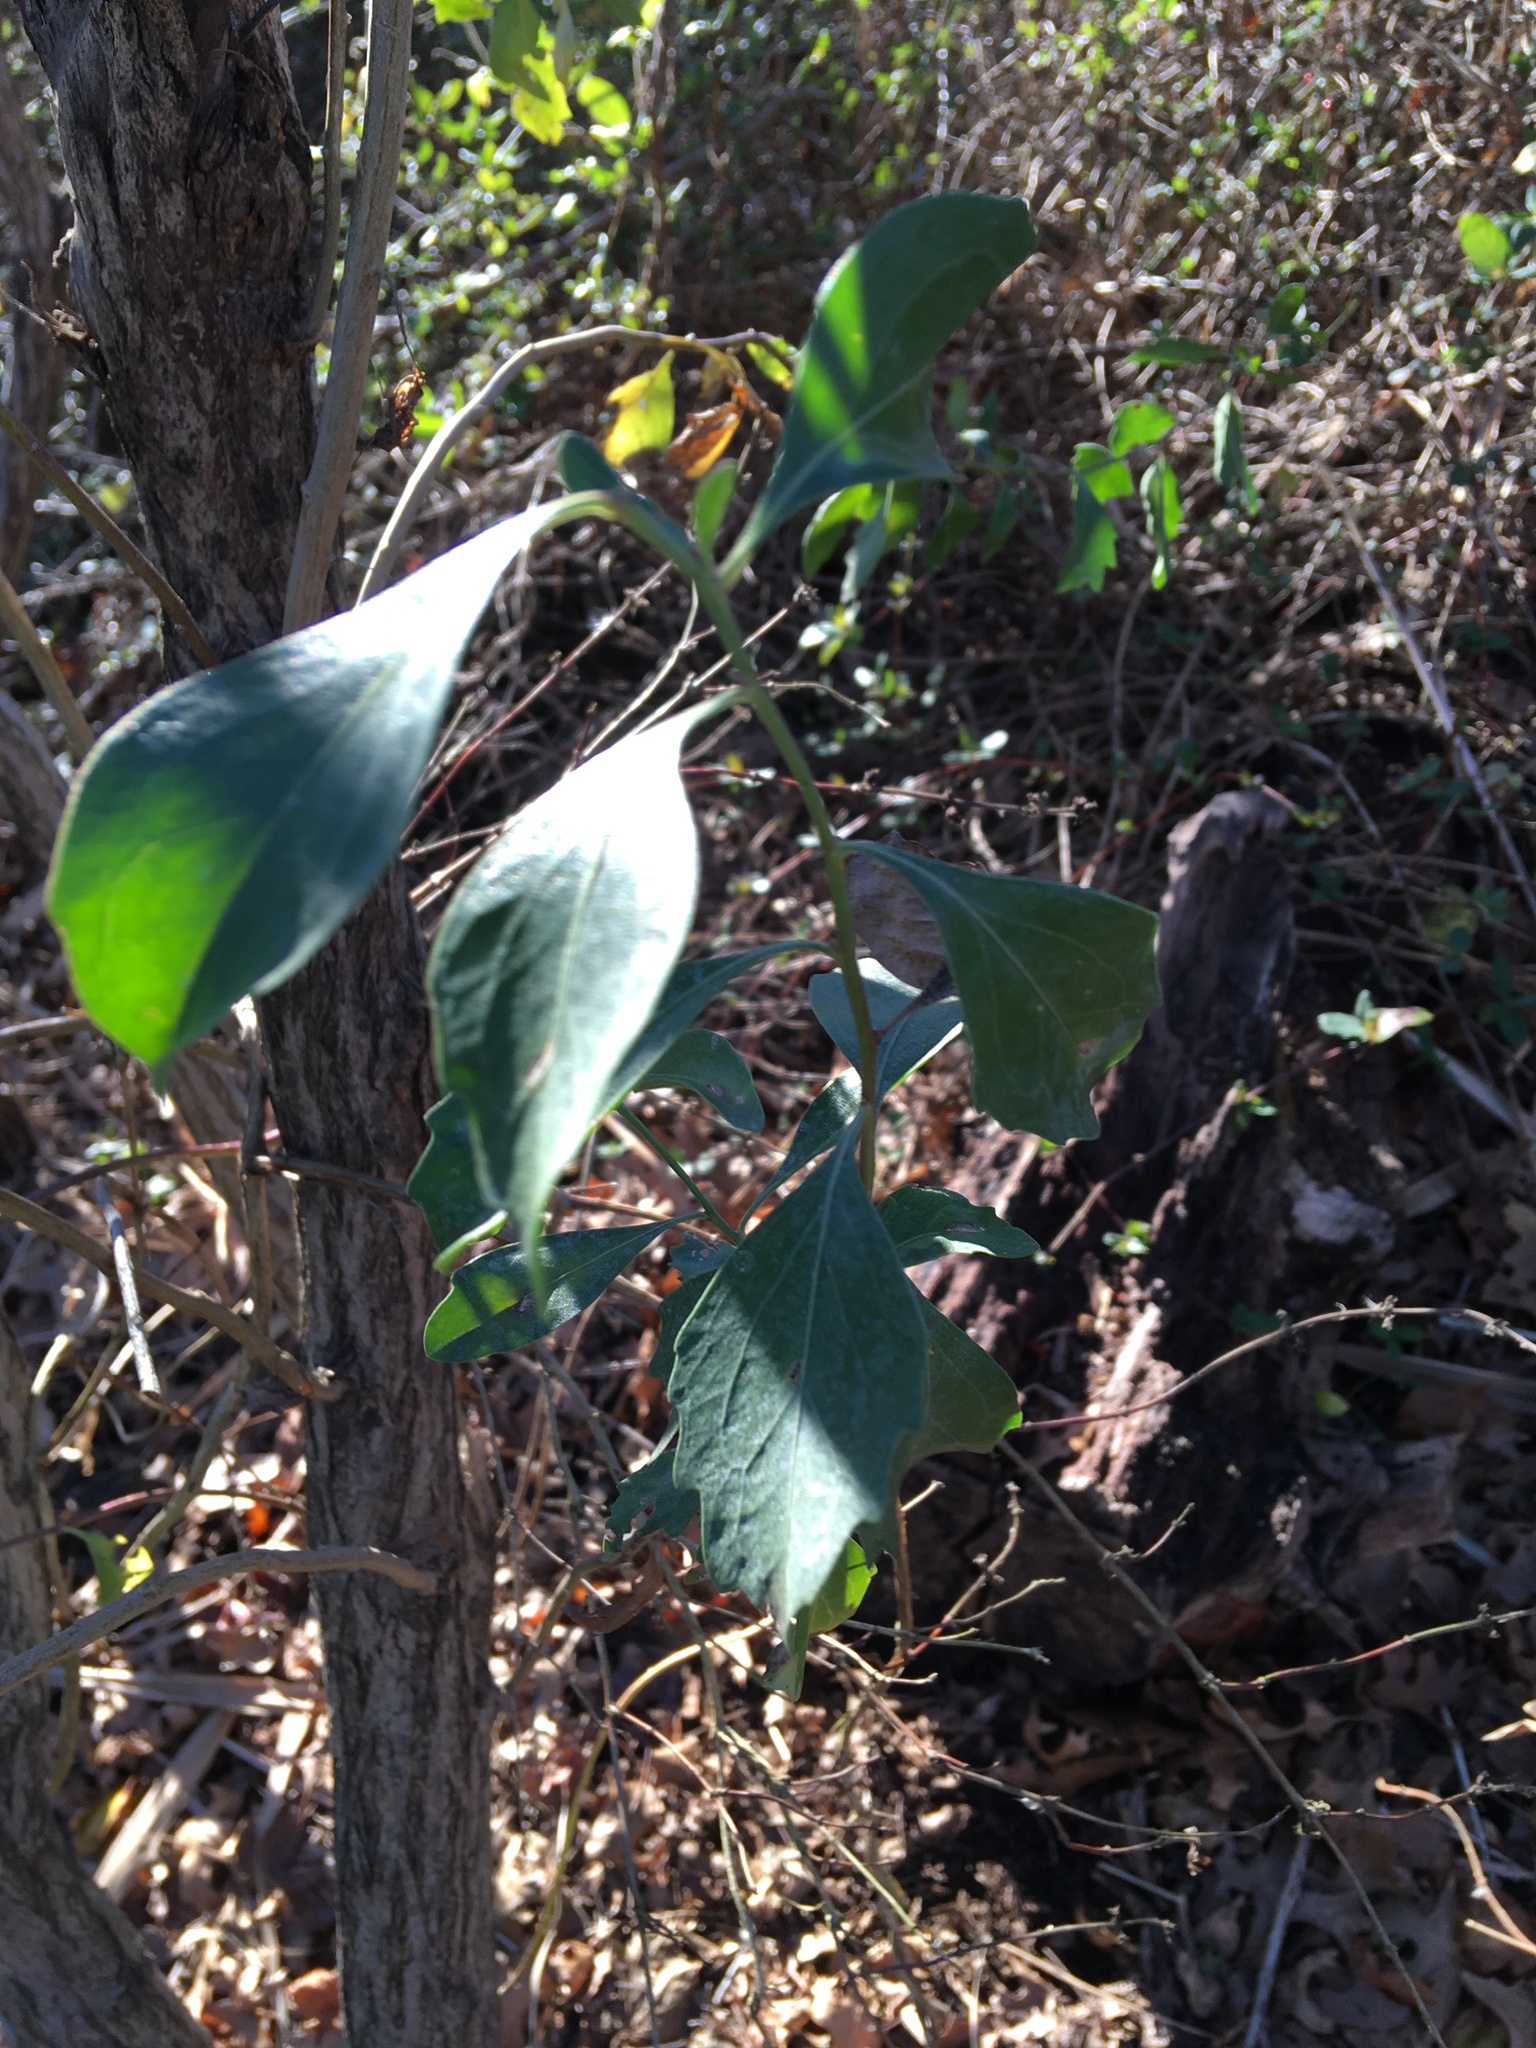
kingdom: Plantae
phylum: Tracheophyta
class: Magnoliopsida
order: Asterales
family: Asteraceae
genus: Baccharis
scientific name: Baccharis halimifolia
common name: Eastern baccharis
